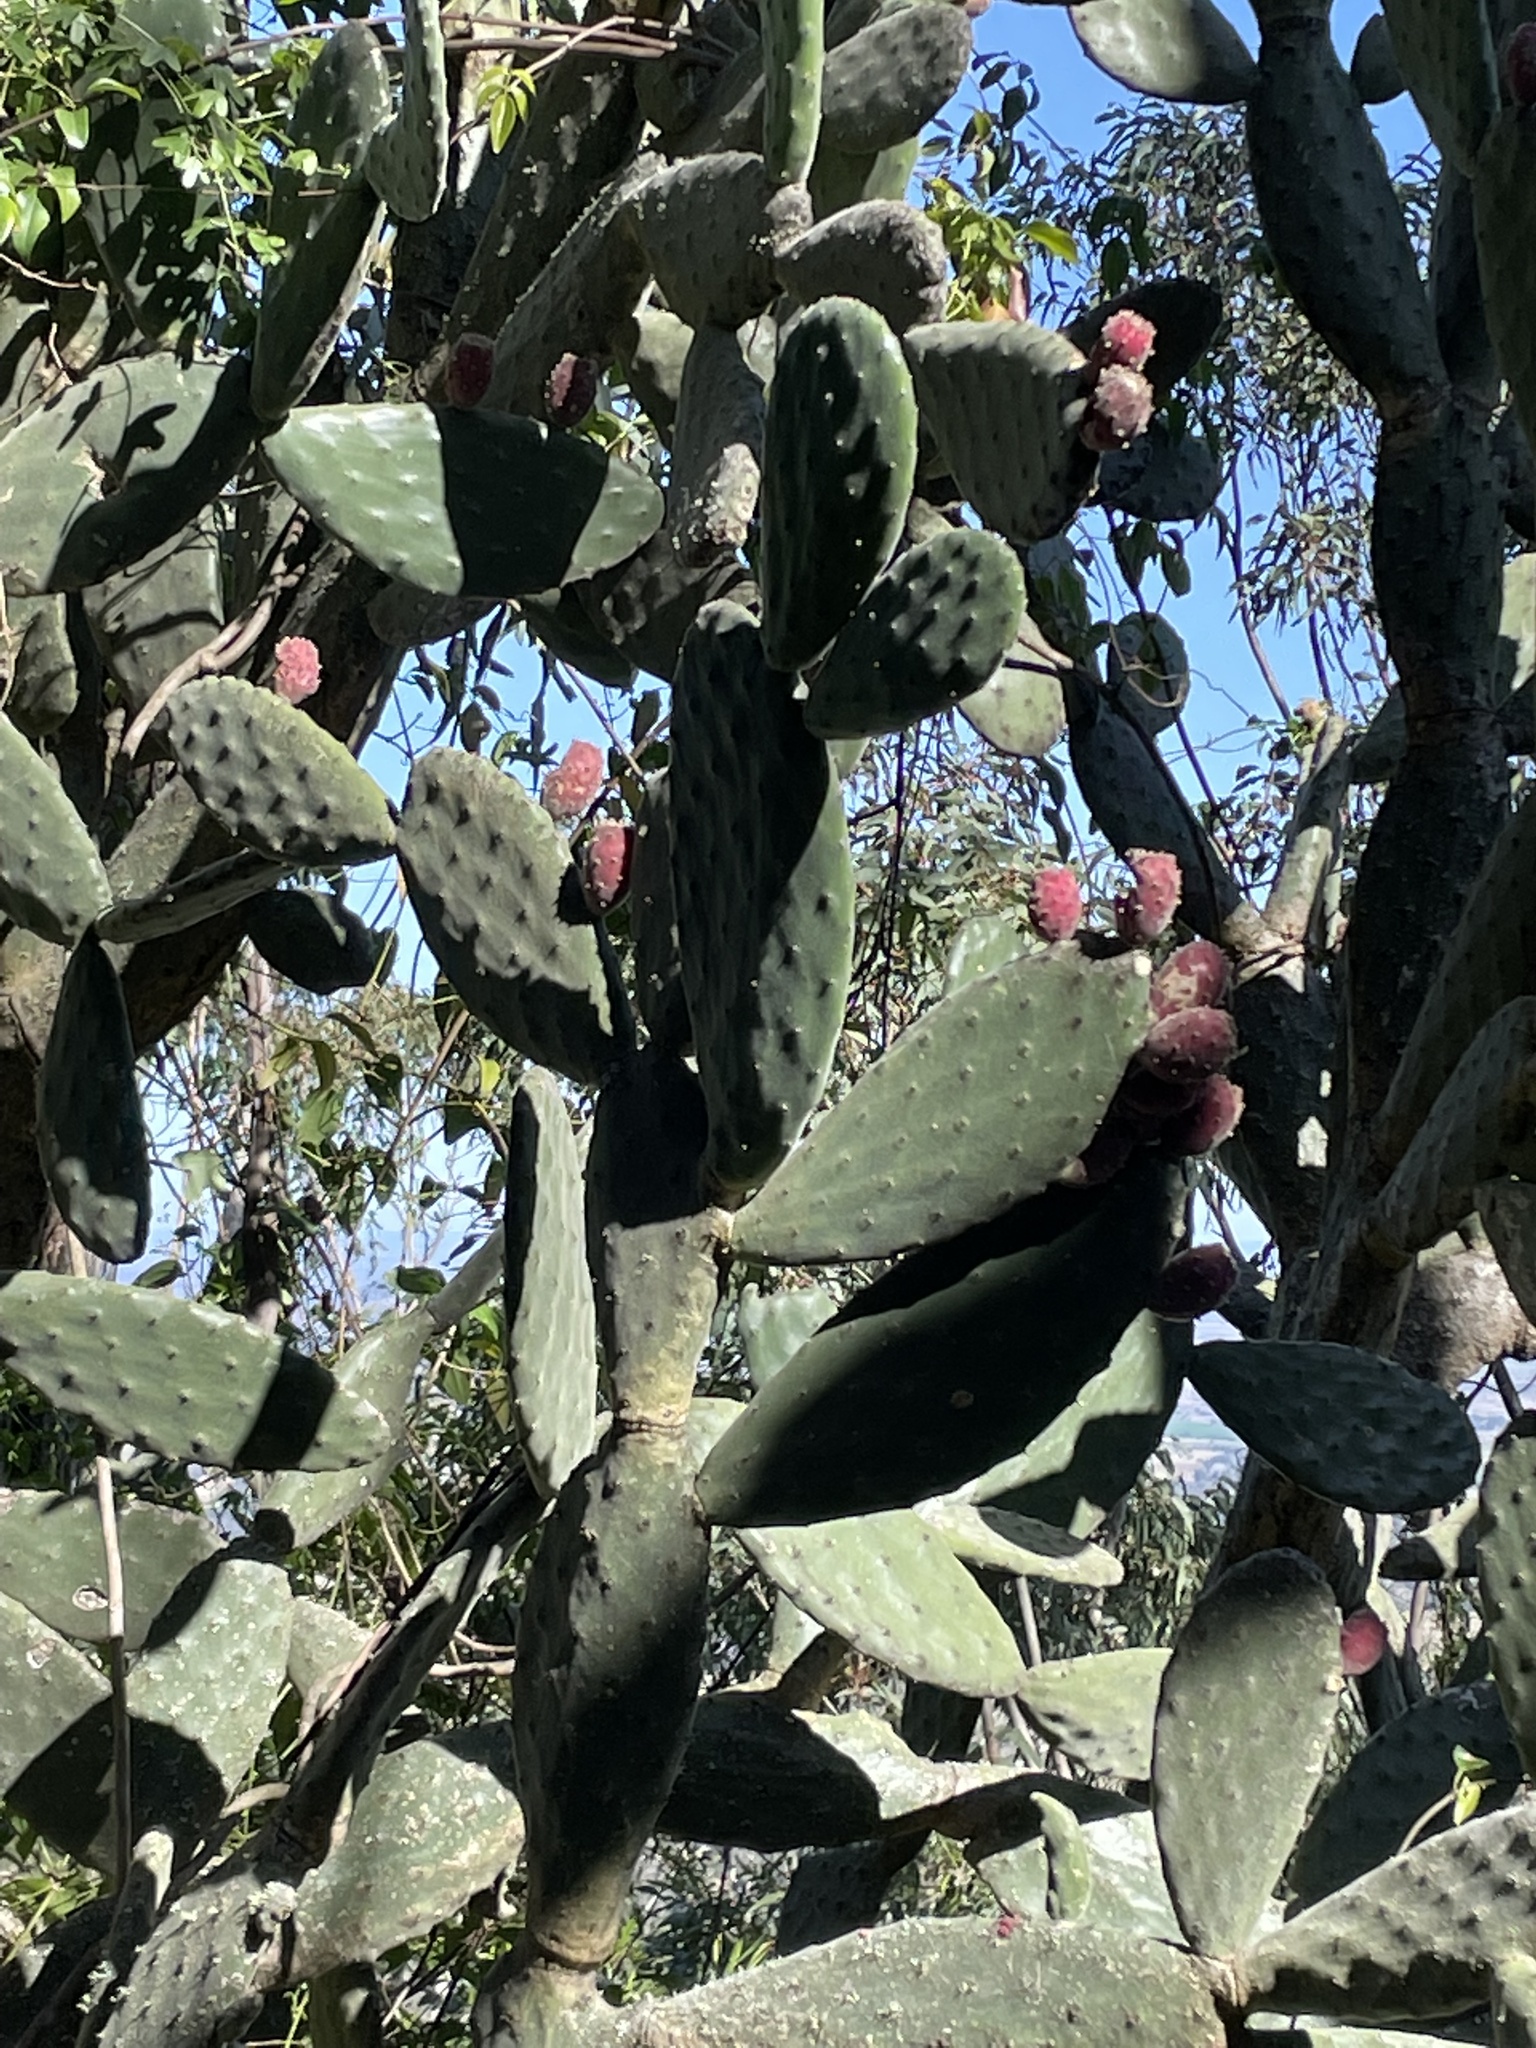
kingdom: Plantae
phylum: Tracheophyta
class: Magnoliopsida
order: Caryophyllales
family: Cactaceae
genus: Opuntia
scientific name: Opuntia tomentosa
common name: Woollyjoint pricklypear
